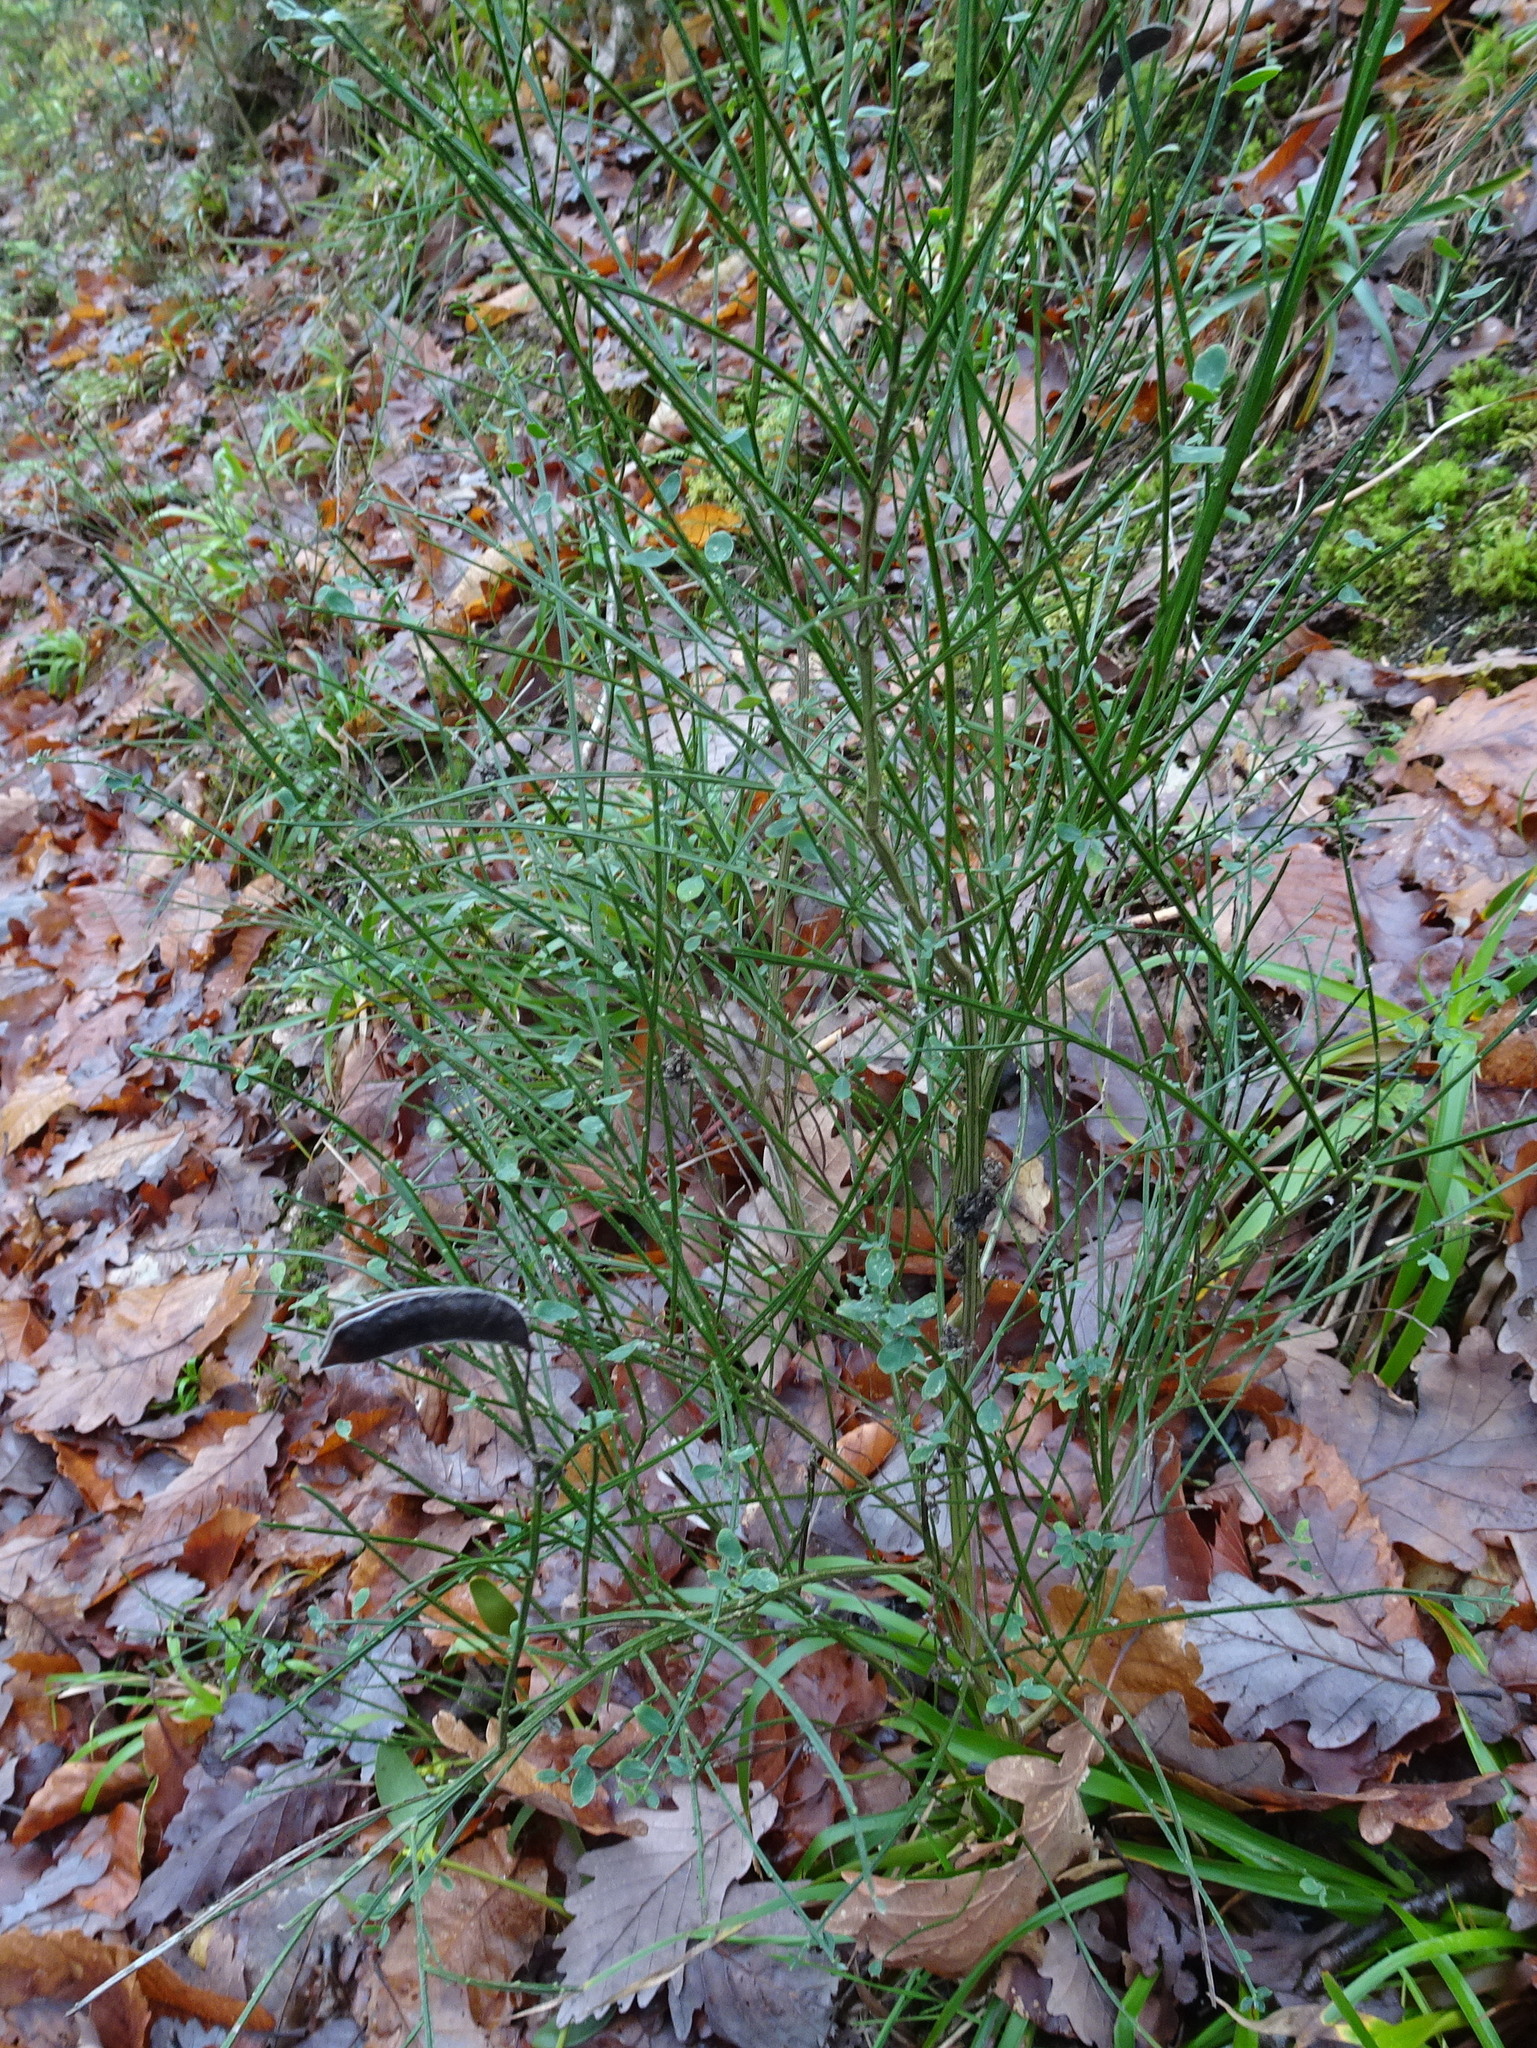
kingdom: Plantae
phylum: Tracheophyta
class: Magnoliopsida
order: Fabales
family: Fabaceae
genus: Cytisus
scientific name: Cytisus scoparius
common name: Scotch broom
